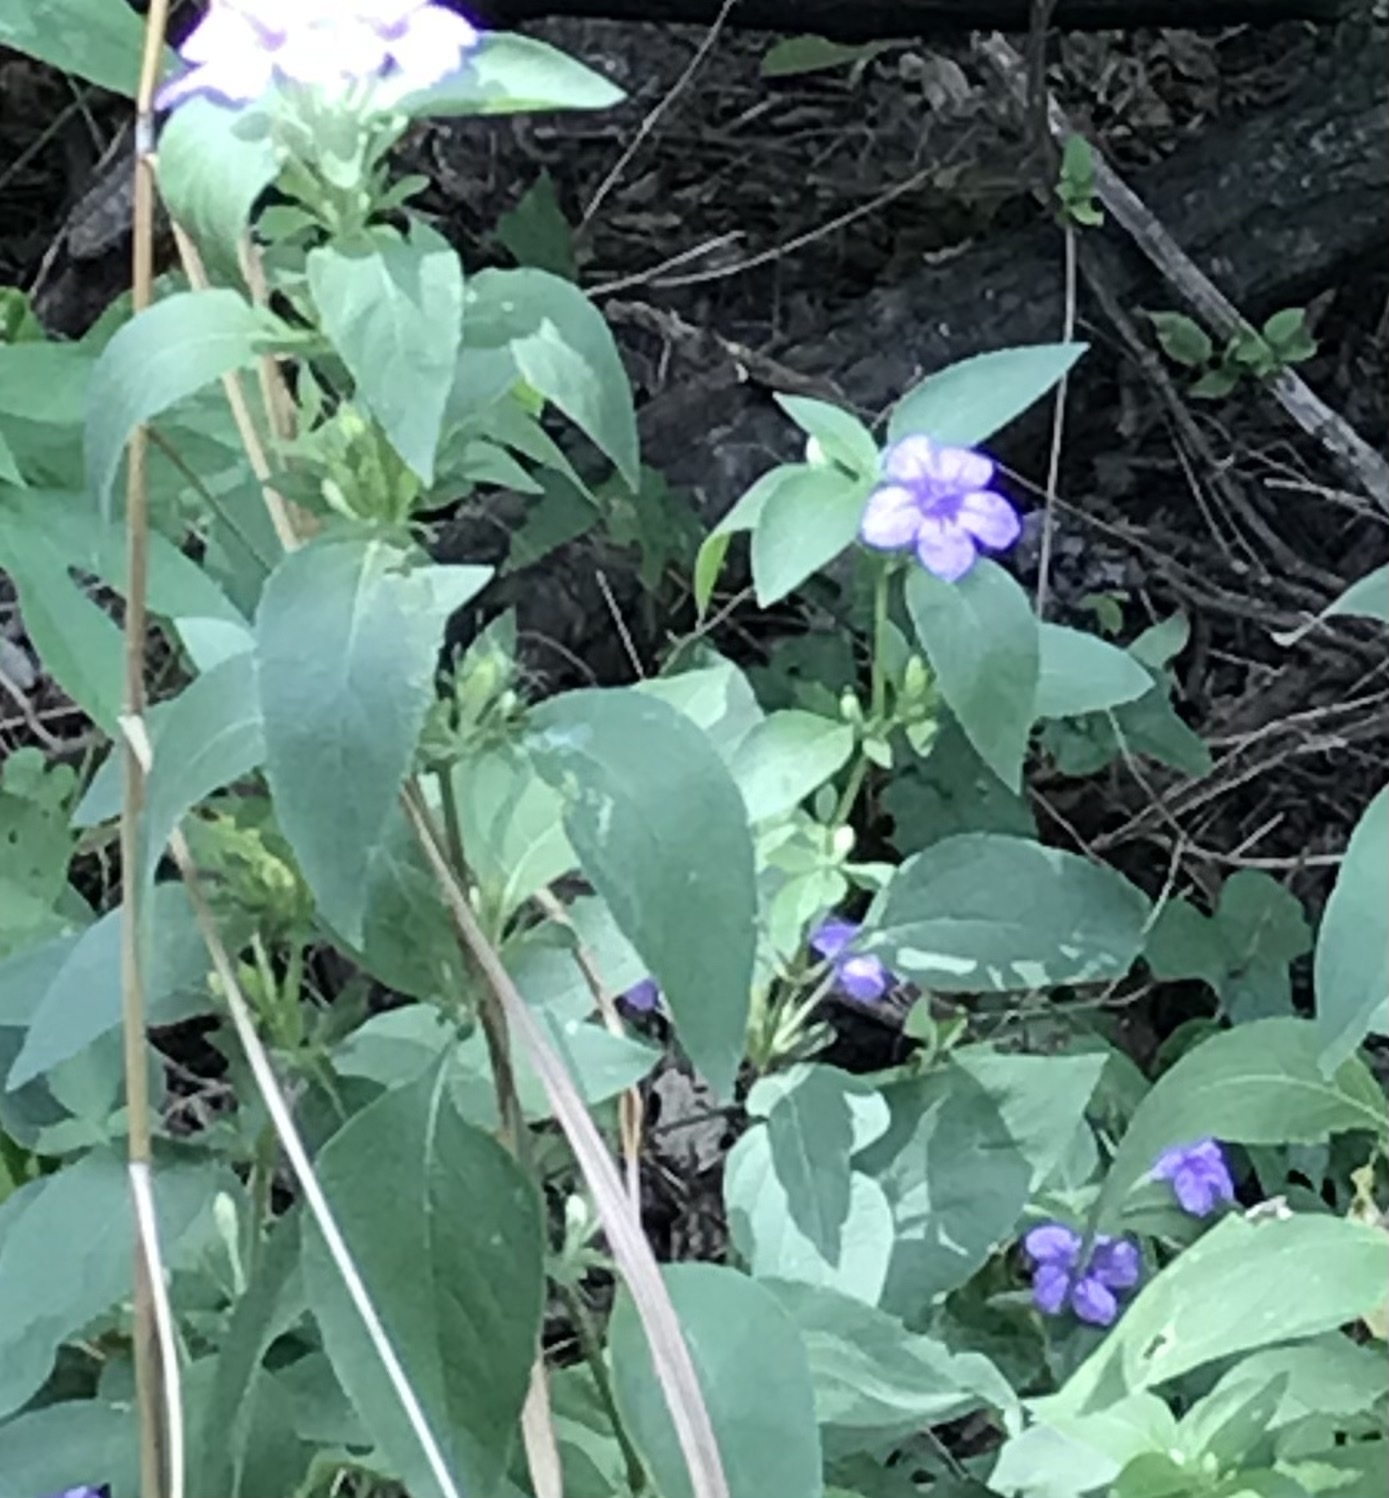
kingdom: Plantae
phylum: Tracheophyta
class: Magnoliopsida
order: Lamiales
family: Acanthaceae
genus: Ruellia
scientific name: Ruellia drummondiana
